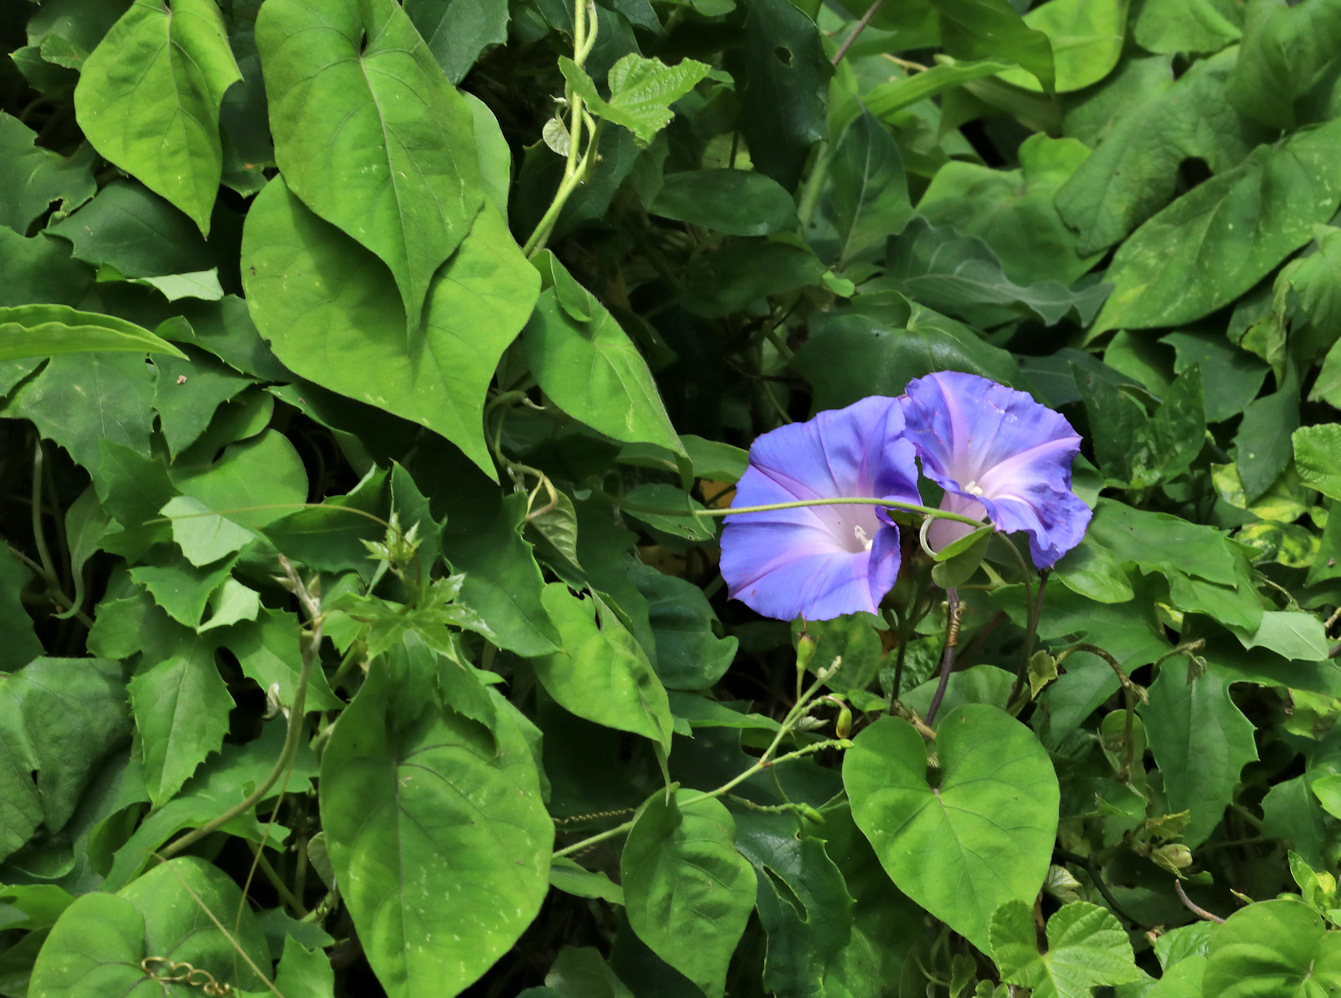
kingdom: Plantae
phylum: Tracheophyta
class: Magnoliopsida
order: Solanales
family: Convolvulaceae
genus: Ipomoea
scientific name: Ipomoea indica
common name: Blue dawnflower
